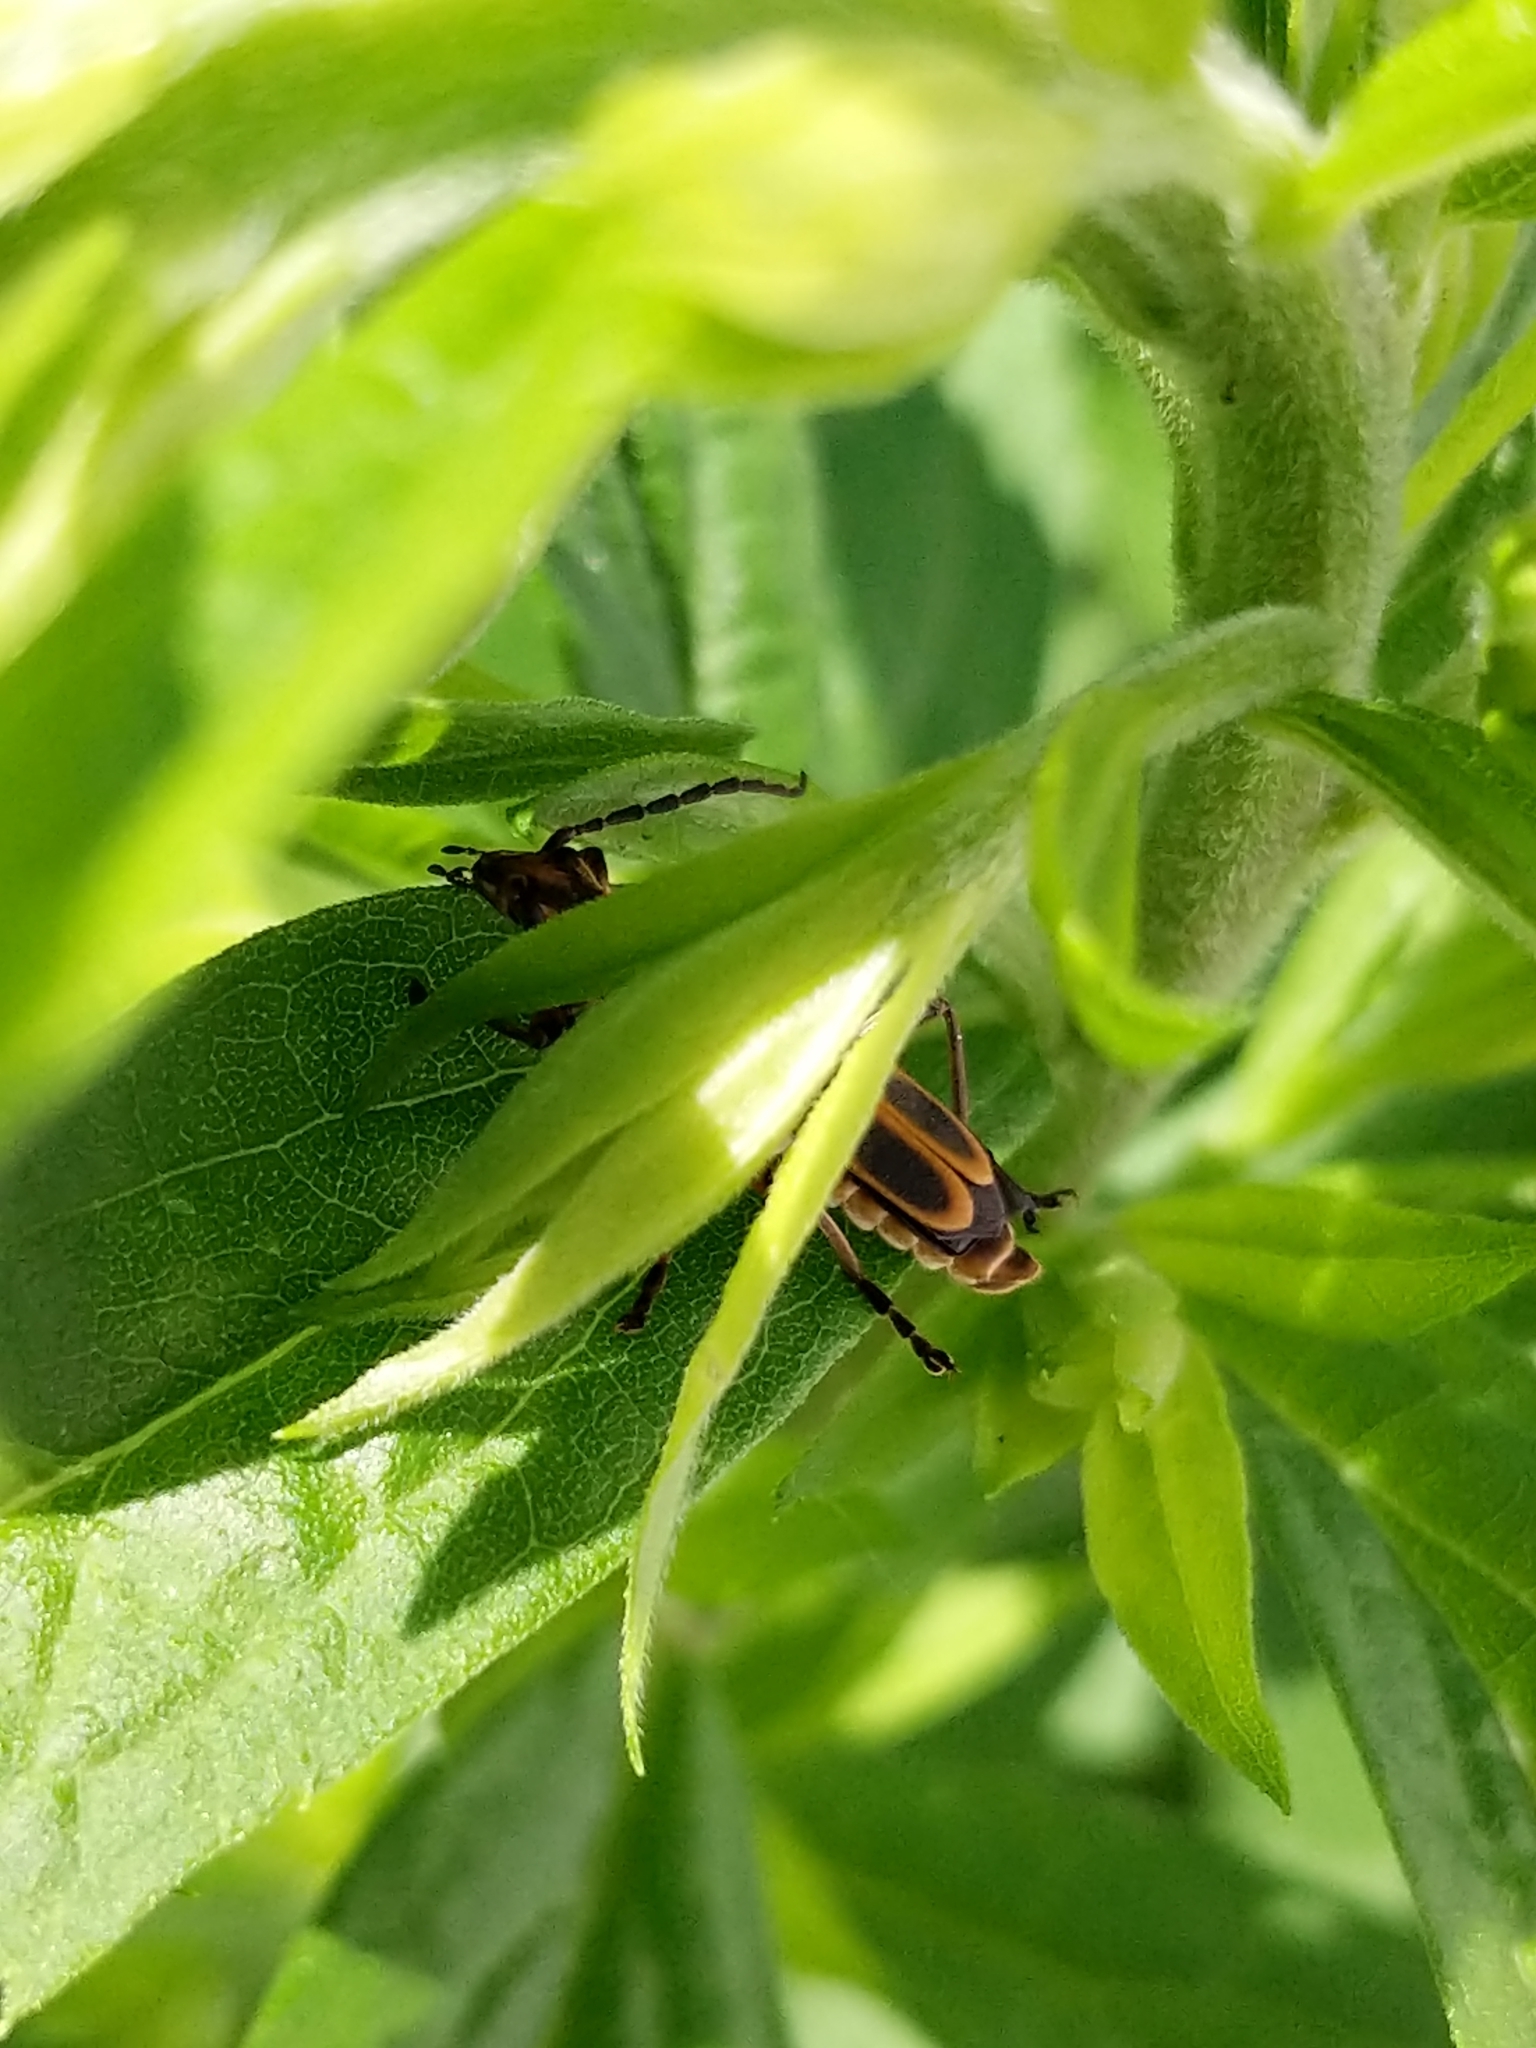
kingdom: Animalia
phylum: Arthropoda
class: Insecta
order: Coleoptera
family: Cantharidae
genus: Chauliognathus
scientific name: Chauliognathus marginatus
